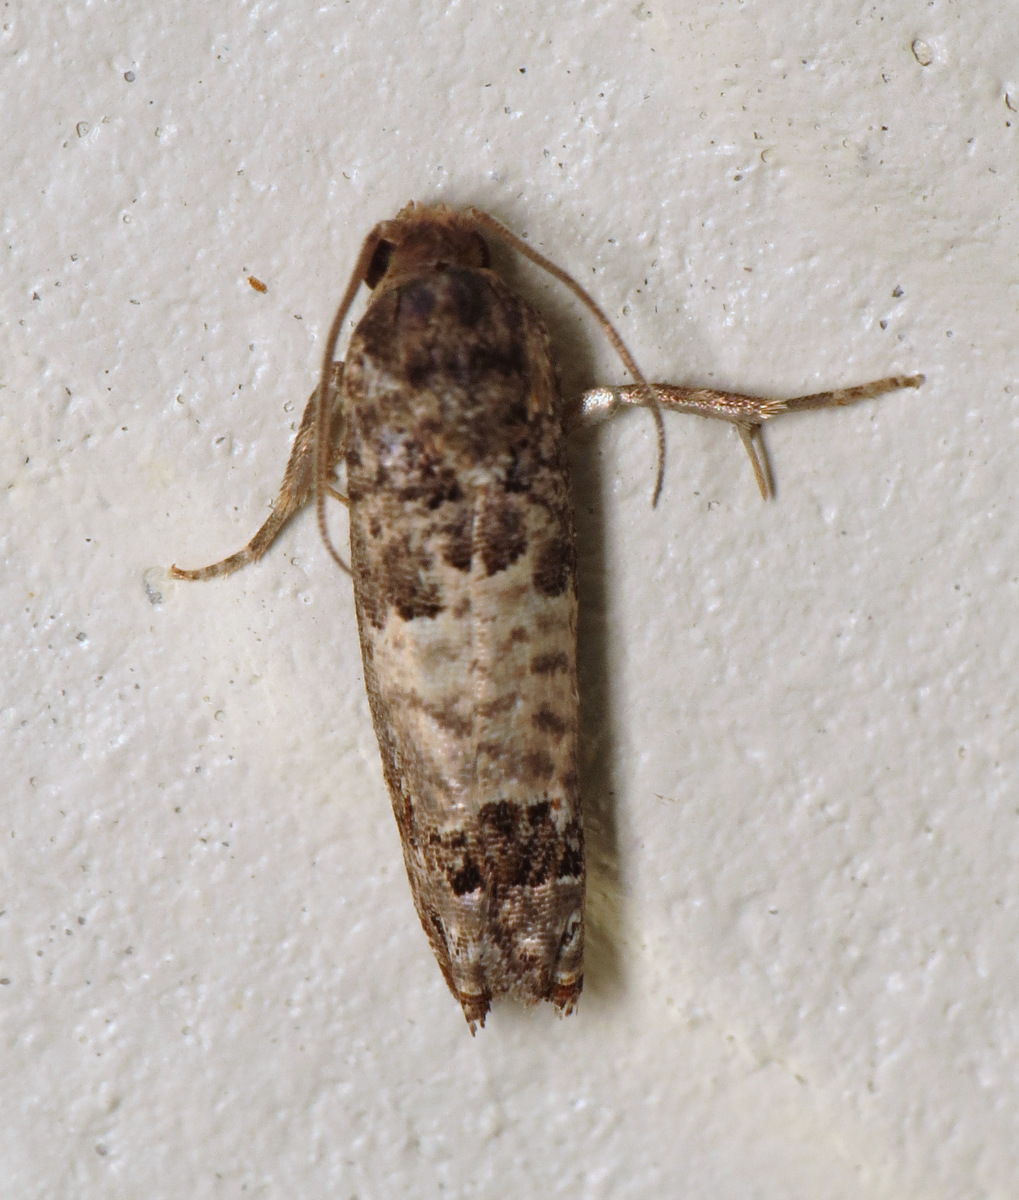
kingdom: Animalia
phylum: Arthropoda
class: Insecta
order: Lepidoptera
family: Tortricidae
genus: Epiblema
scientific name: Epiblema carolinana
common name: Gray-blotched epiblema moth
